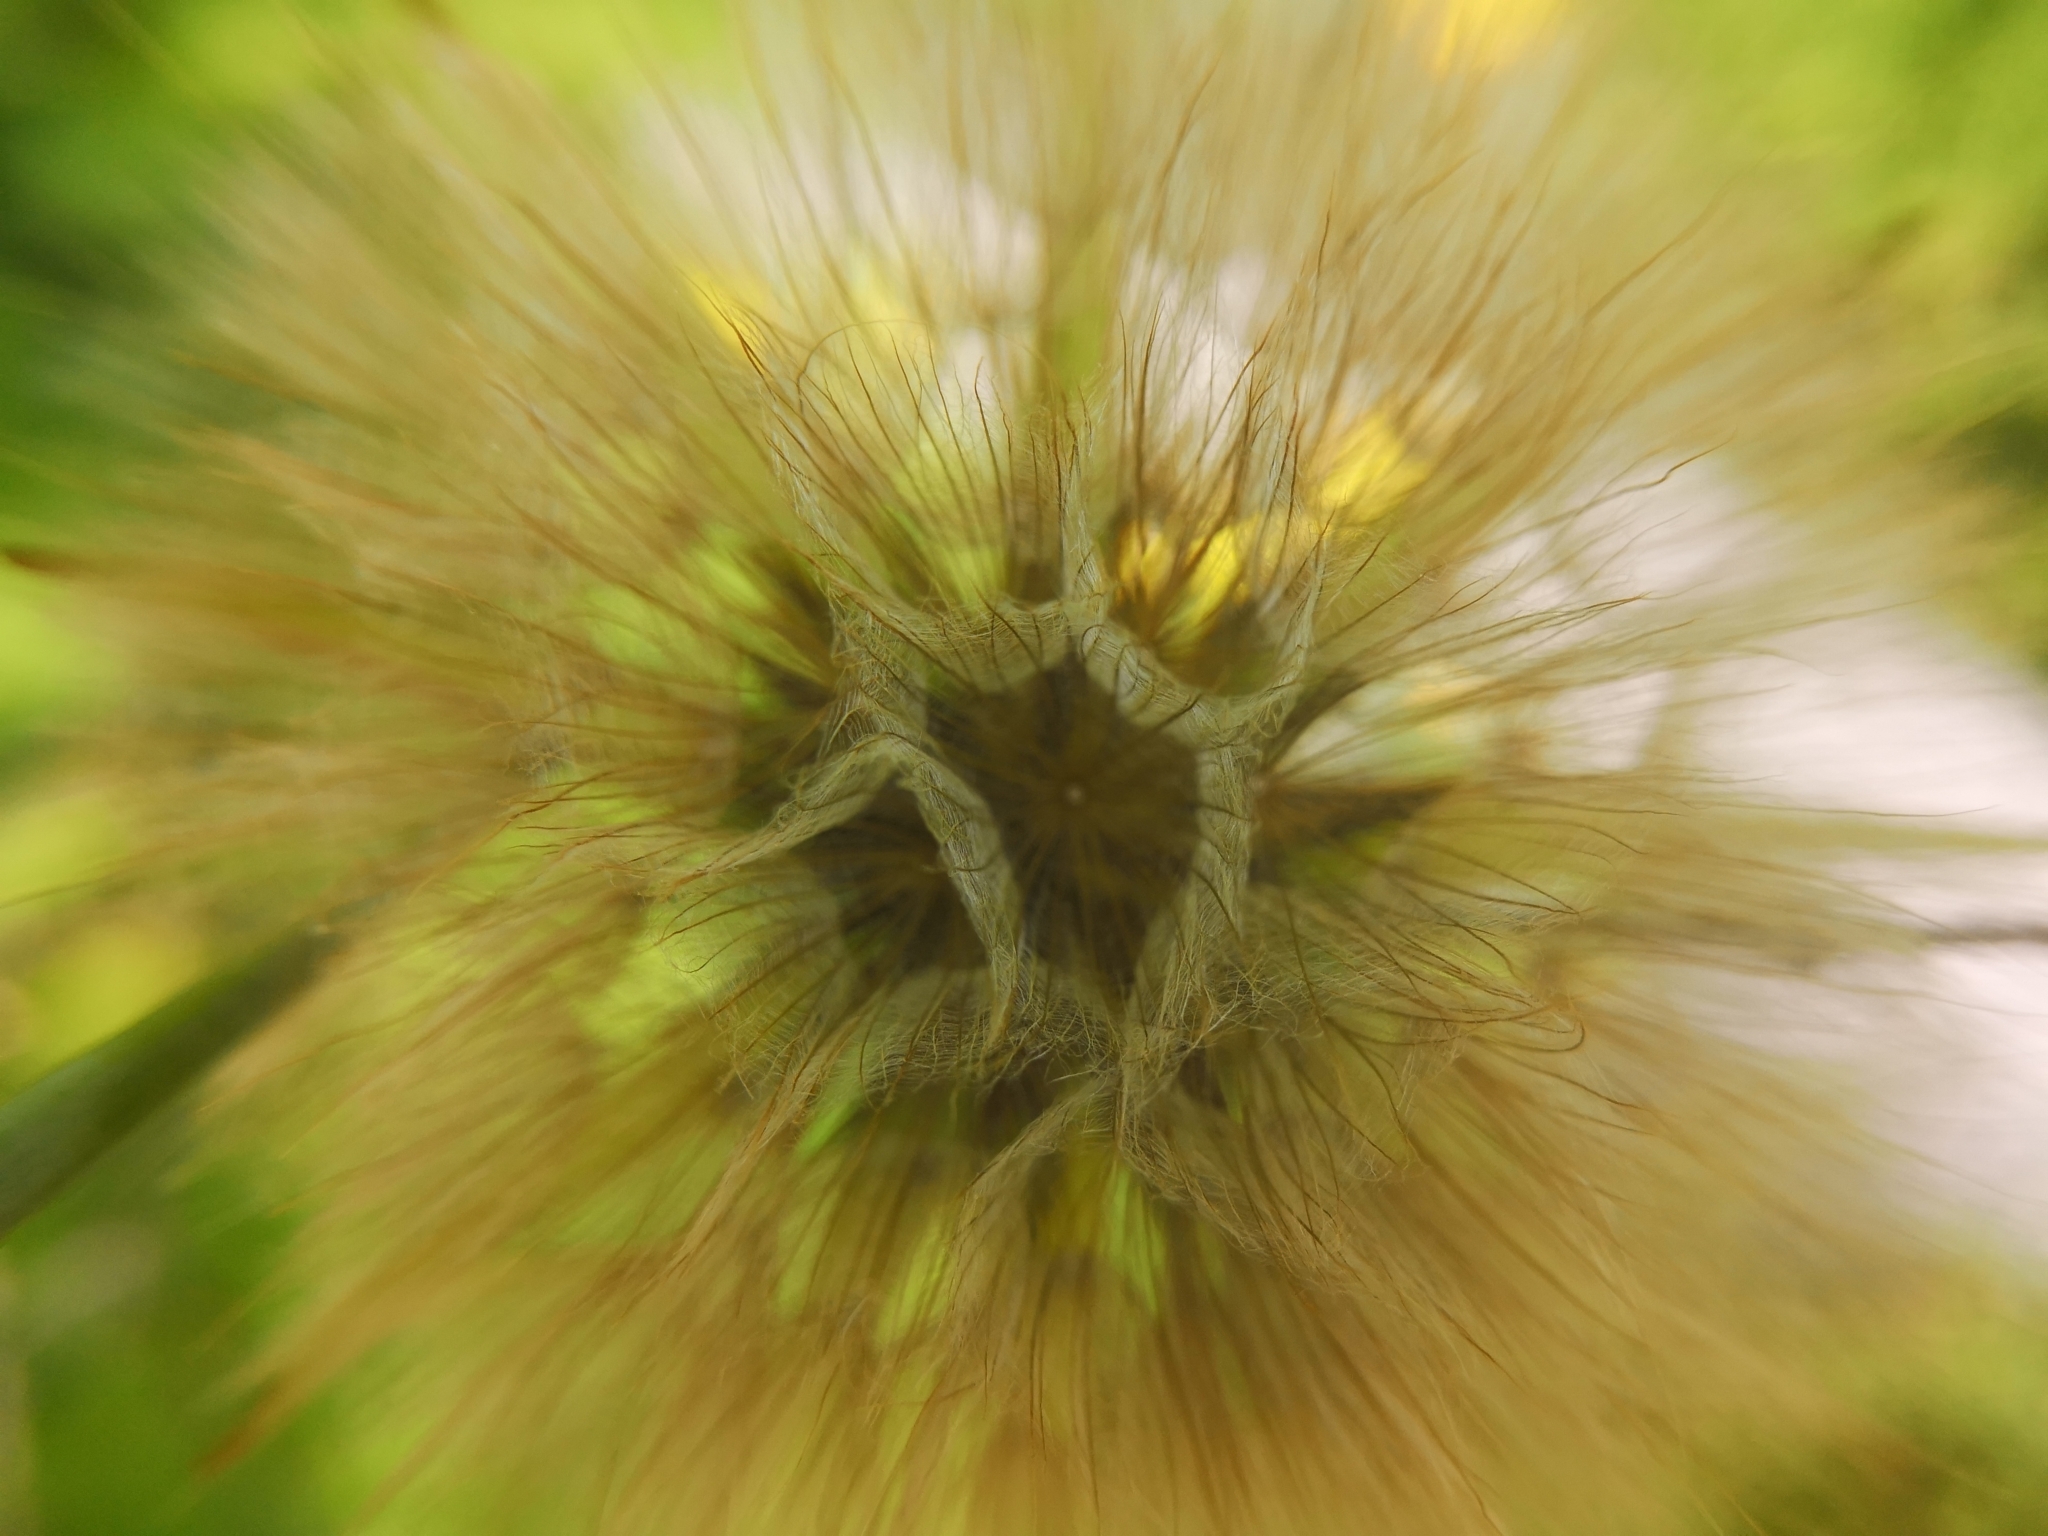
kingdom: Plantae
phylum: Tracheophyta
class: Magnoliopsida
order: Asterales
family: Asteraceae
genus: Tragopogon
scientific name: Tragopogon dubius
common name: Yellow salsify
